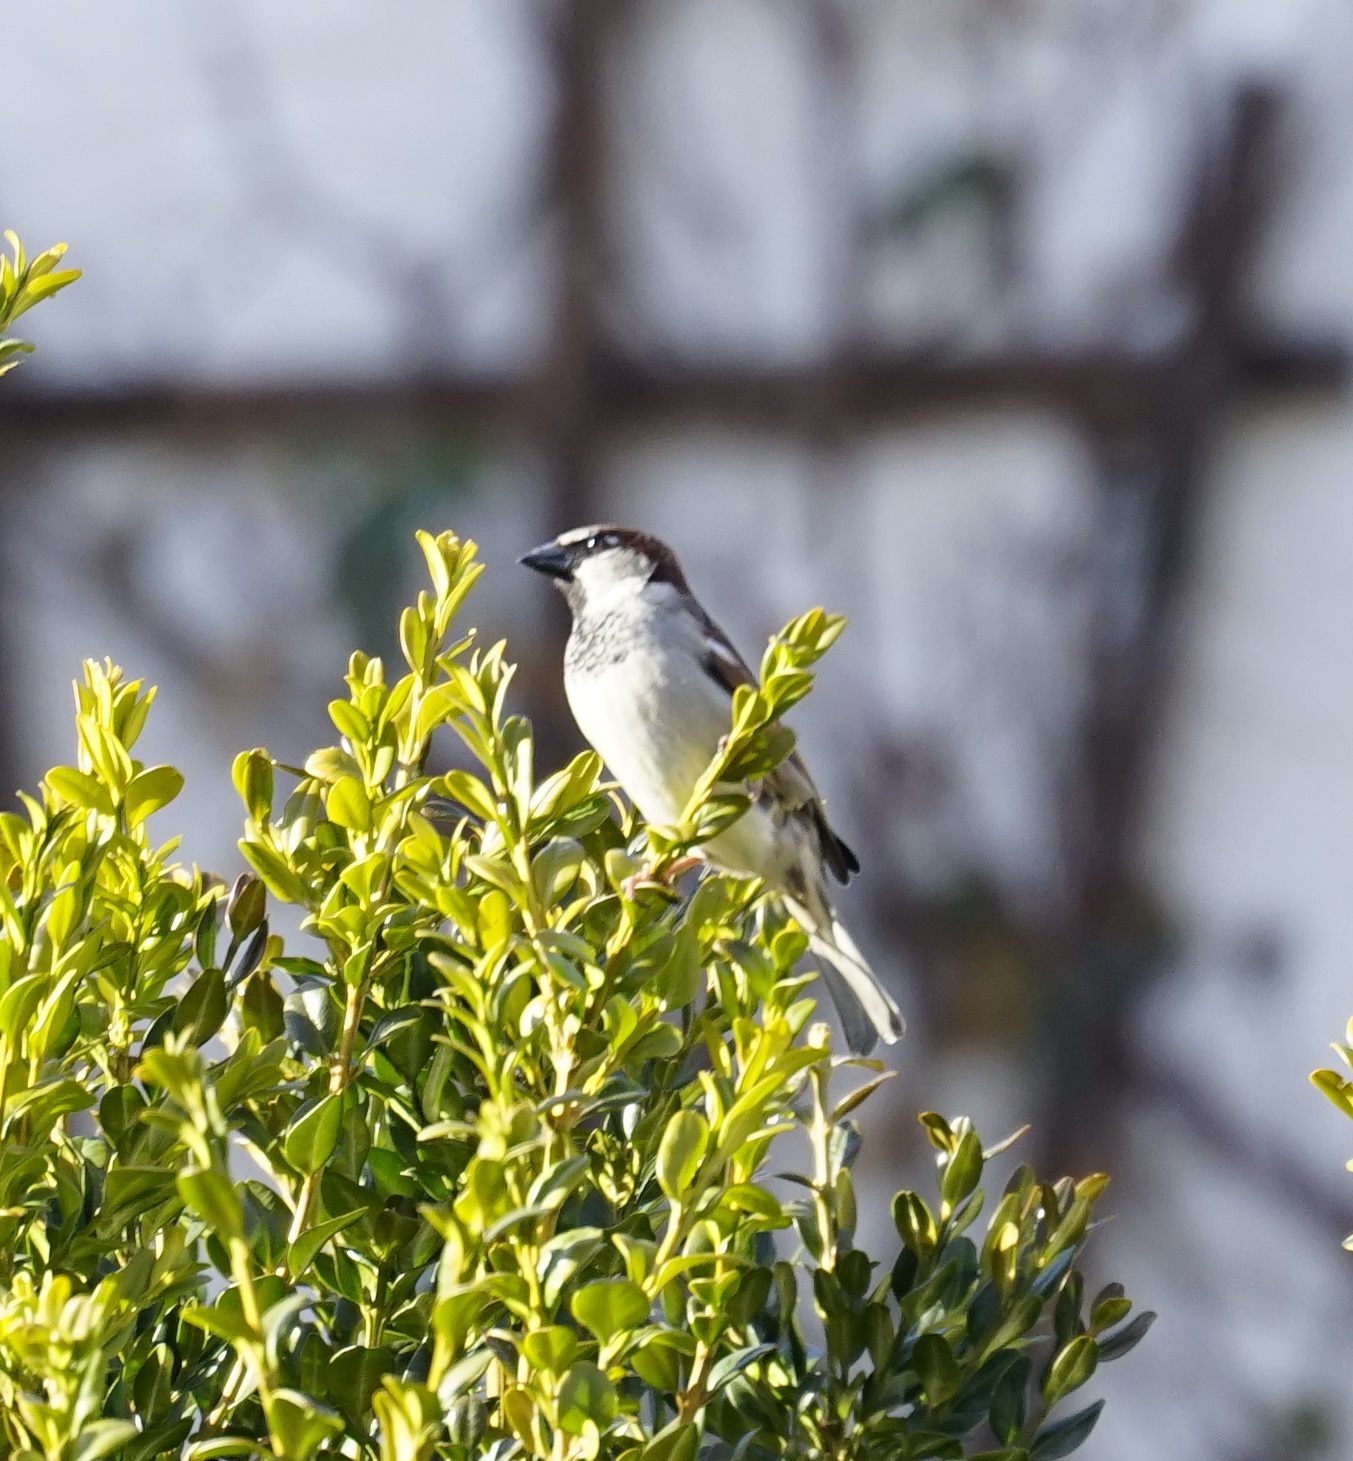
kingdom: Animalia
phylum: Chordata
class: Aves
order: Passeriformes
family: Passeridae
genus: Passer
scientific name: Passer domesticus
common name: House sparrow
